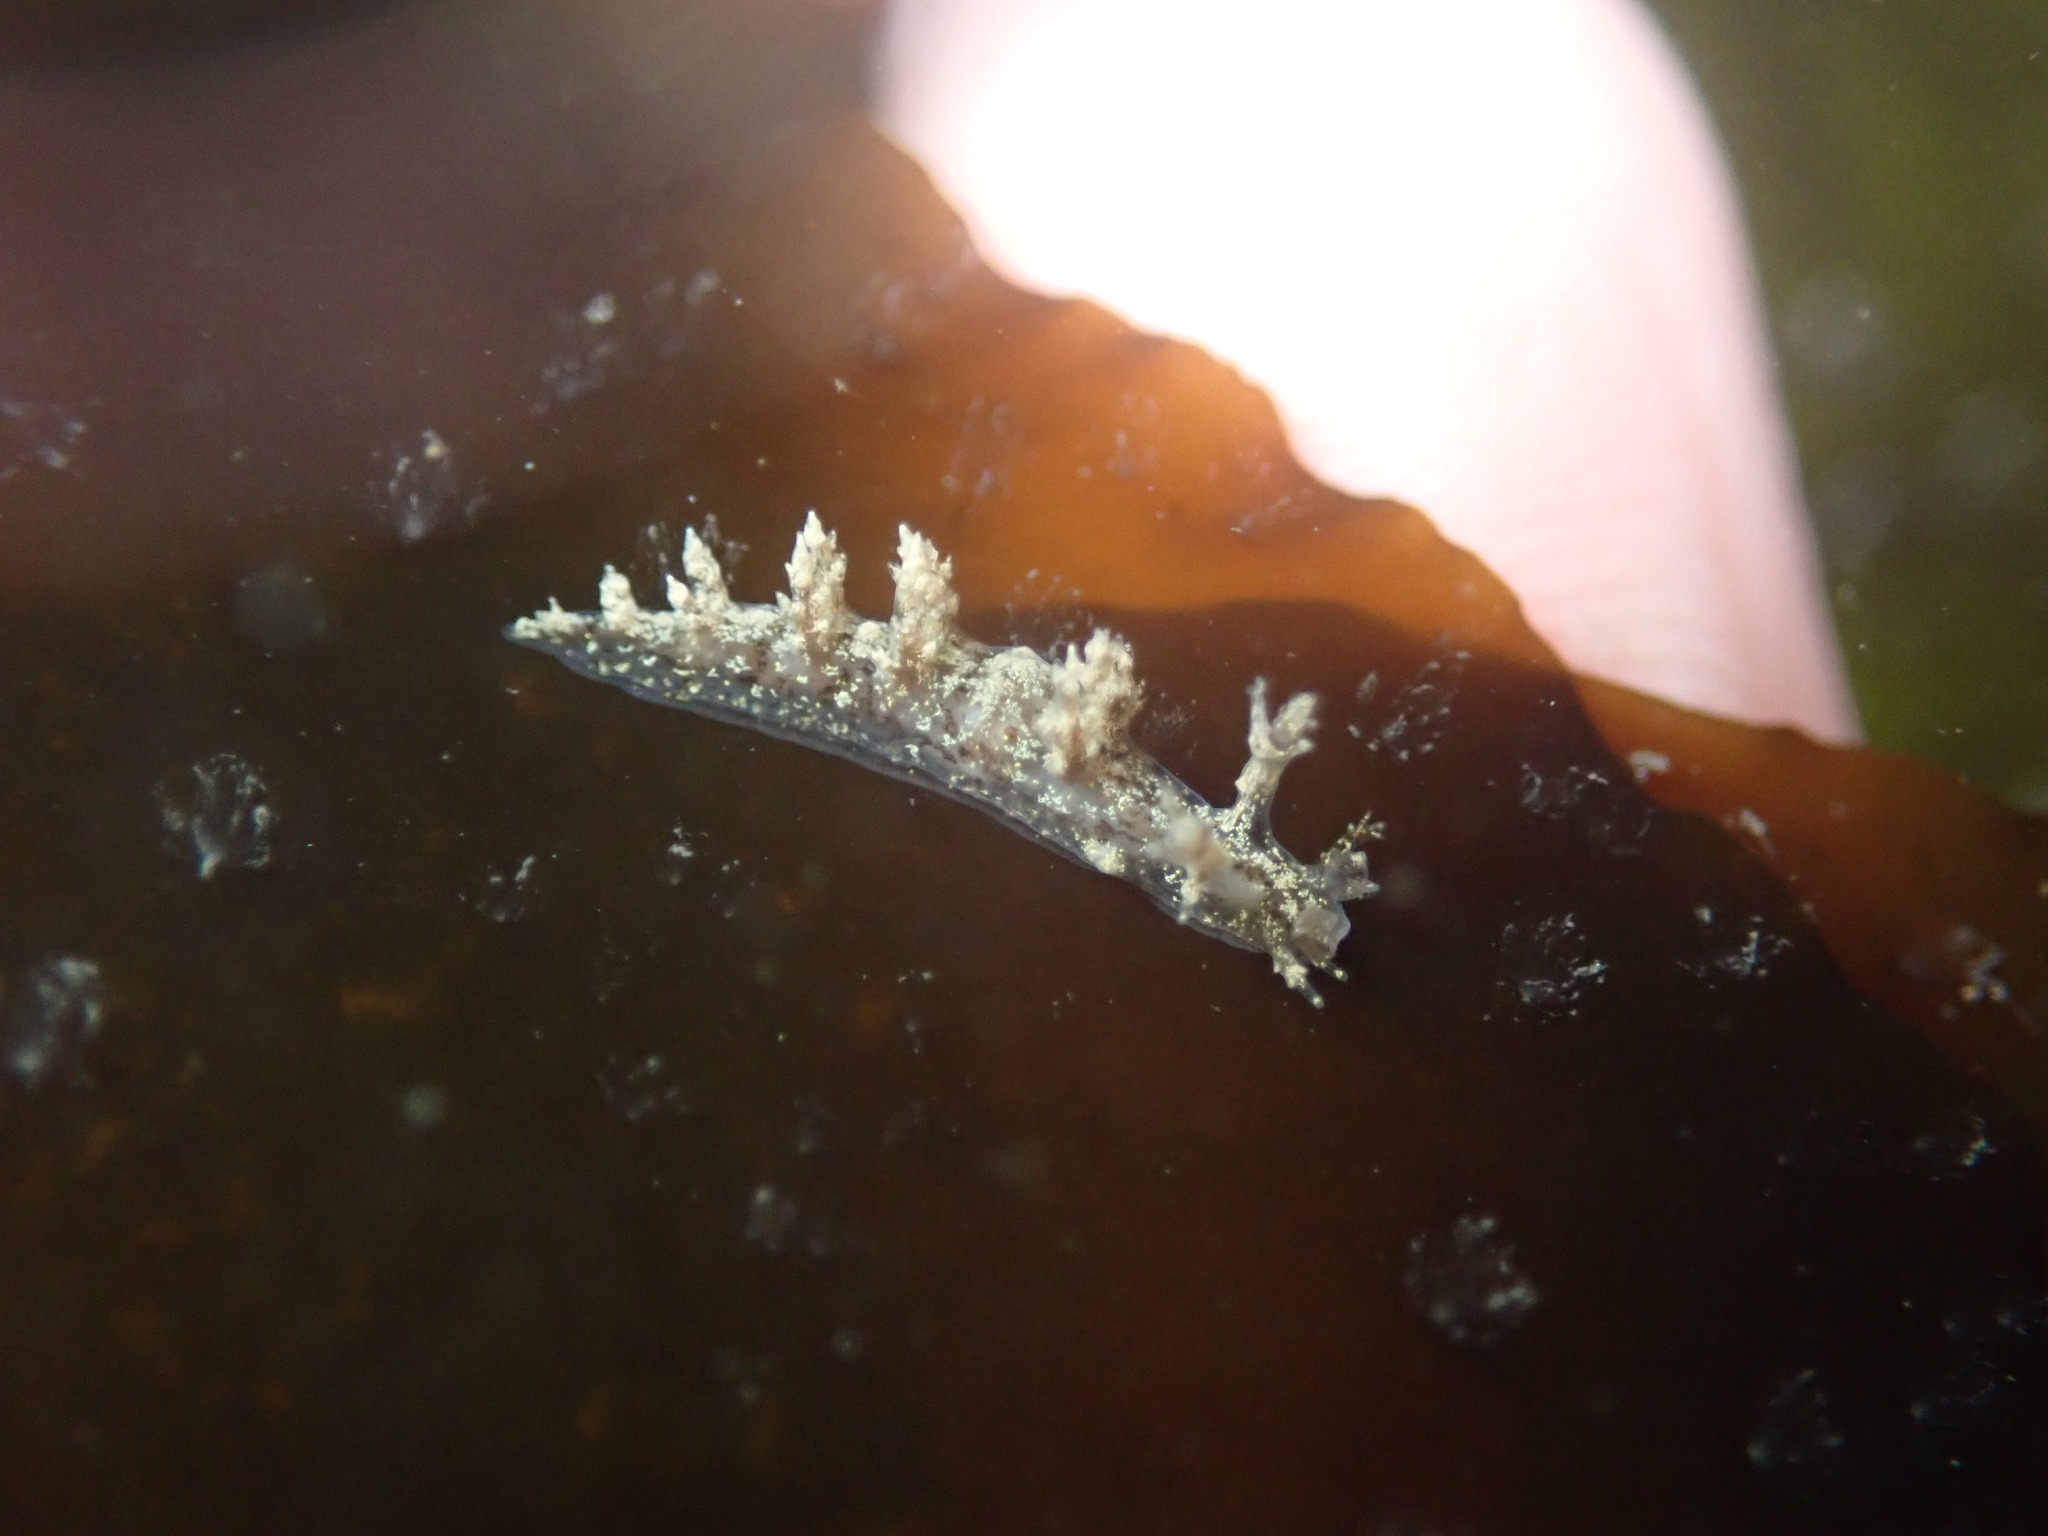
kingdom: Animalia
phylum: Mollusca
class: Gastropoda
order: Nudibranchia
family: Dendronotidae
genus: Dendronotus
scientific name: Dendronotus venustus
